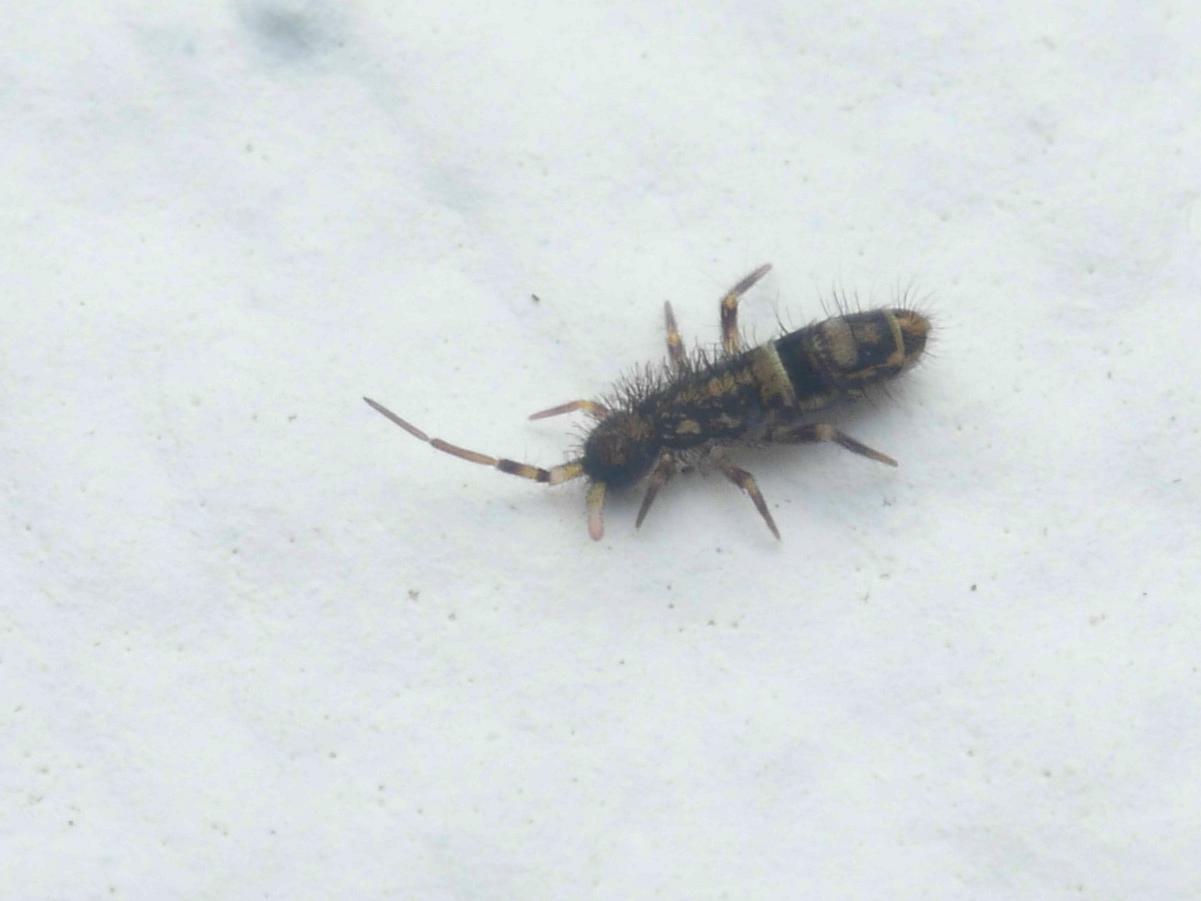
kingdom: Animalia
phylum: Arthropoda
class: Collembola
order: Entomobryomorpha
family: Orchesellidae
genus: Orchesella
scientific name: Orchesella cincta
